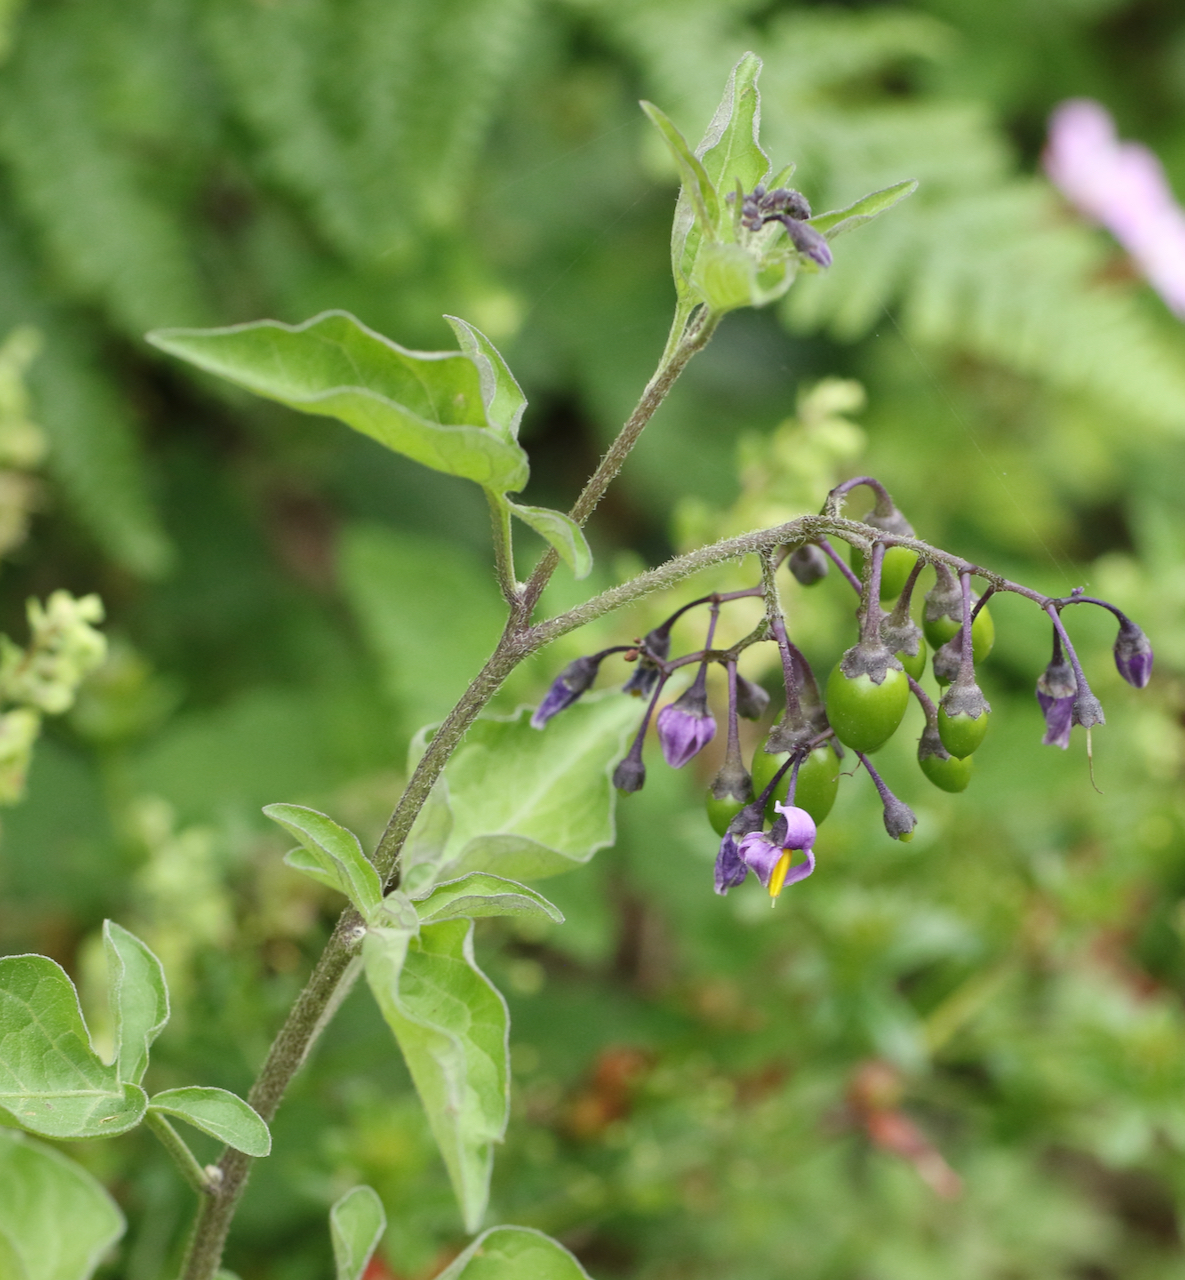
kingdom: Plantae
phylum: Tracheophyta
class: Magnoliopsida
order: Solanales
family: Solanaceae
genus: Solanum
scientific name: Solanum dulcamara
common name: Climbing nightshade
